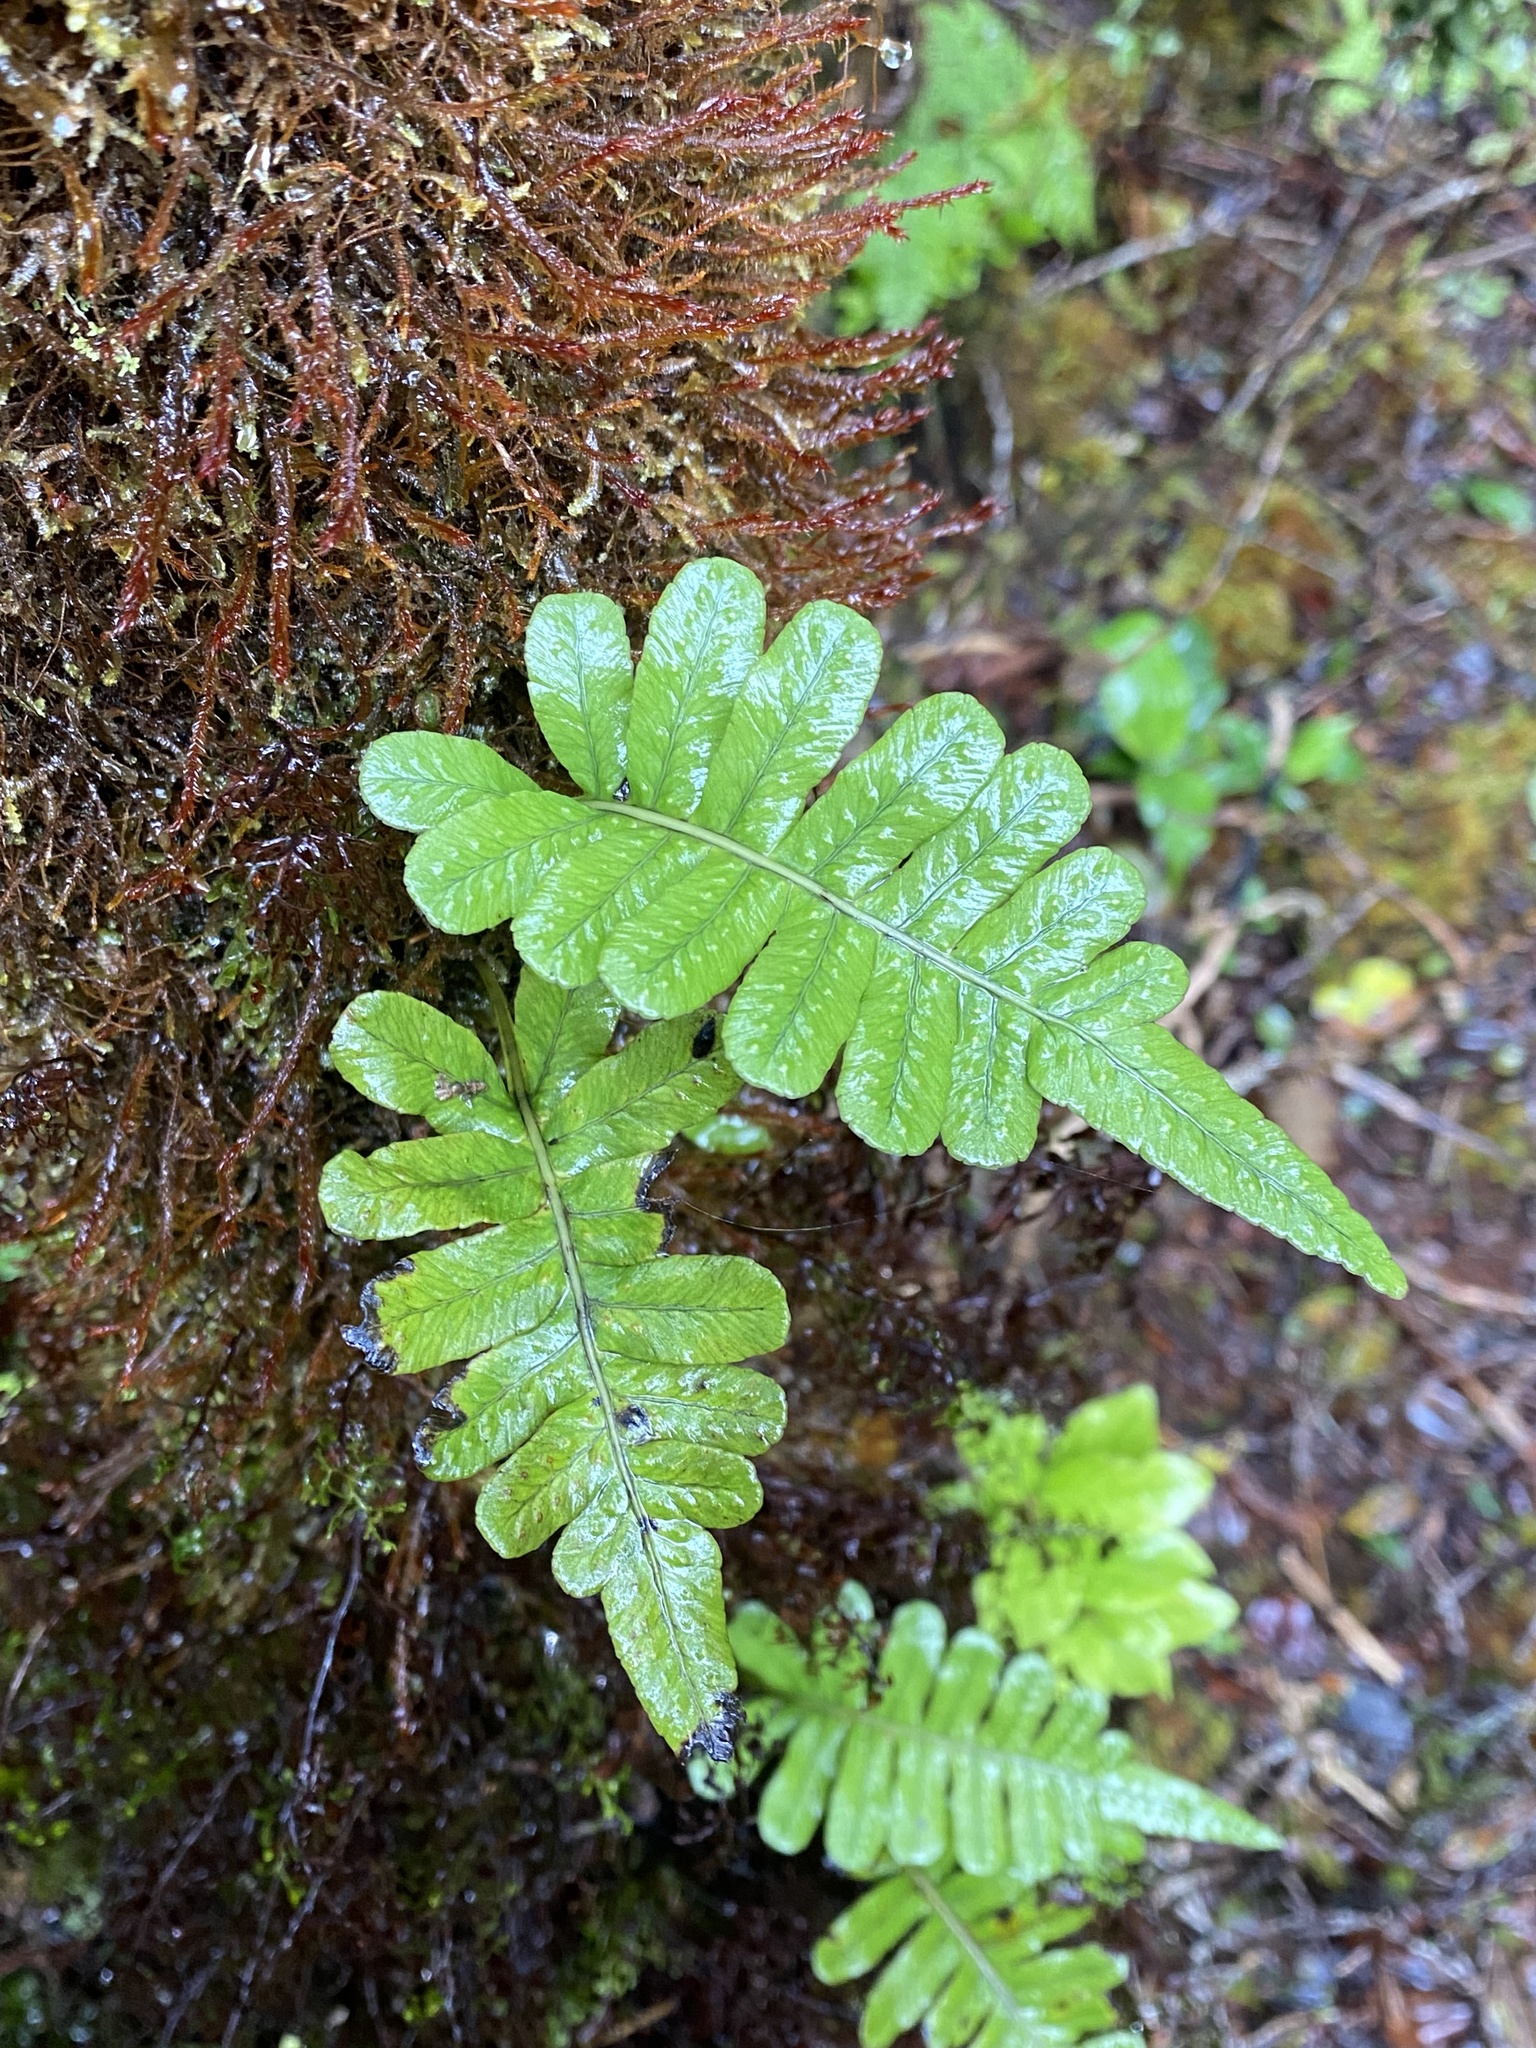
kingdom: Plantae
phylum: Tracheophyta
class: Polypodiopsida
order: Polypodiales
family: Polypodiaceae
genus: Polypodium
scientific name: Polypodium pellucidum
